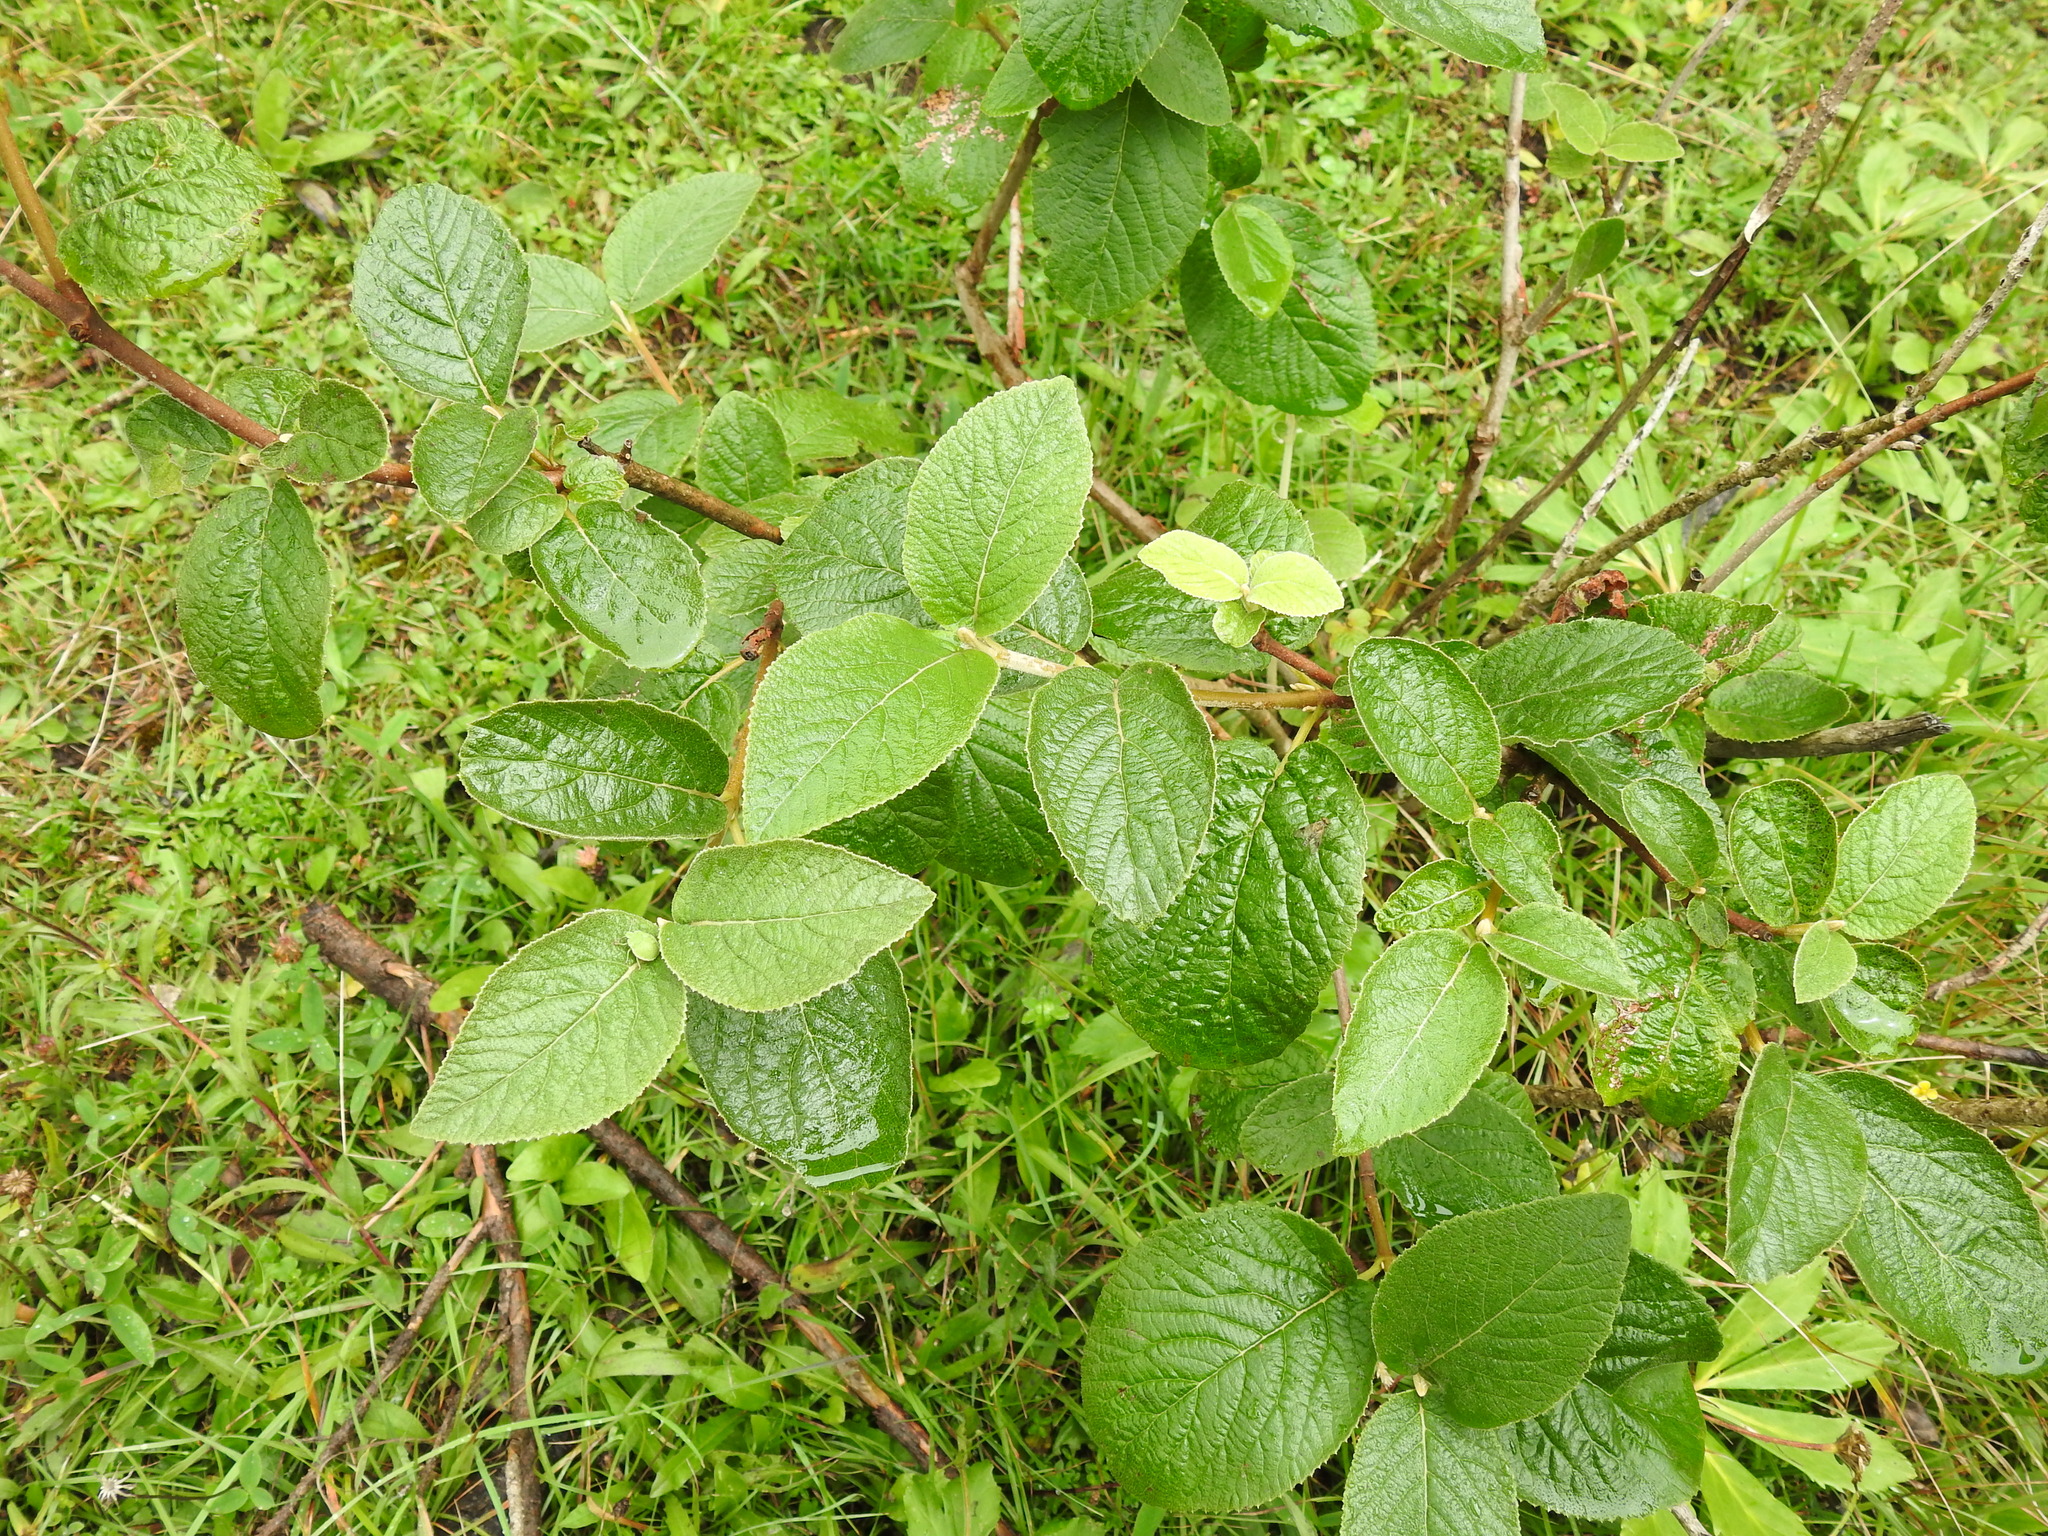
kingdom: Plantae
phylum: Tracheophyta
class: Magnoliopsida
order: Dipsacales
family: Viburnaceae
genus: Viburnum
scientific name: Viburnum lantana
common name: Wayfaring tree
